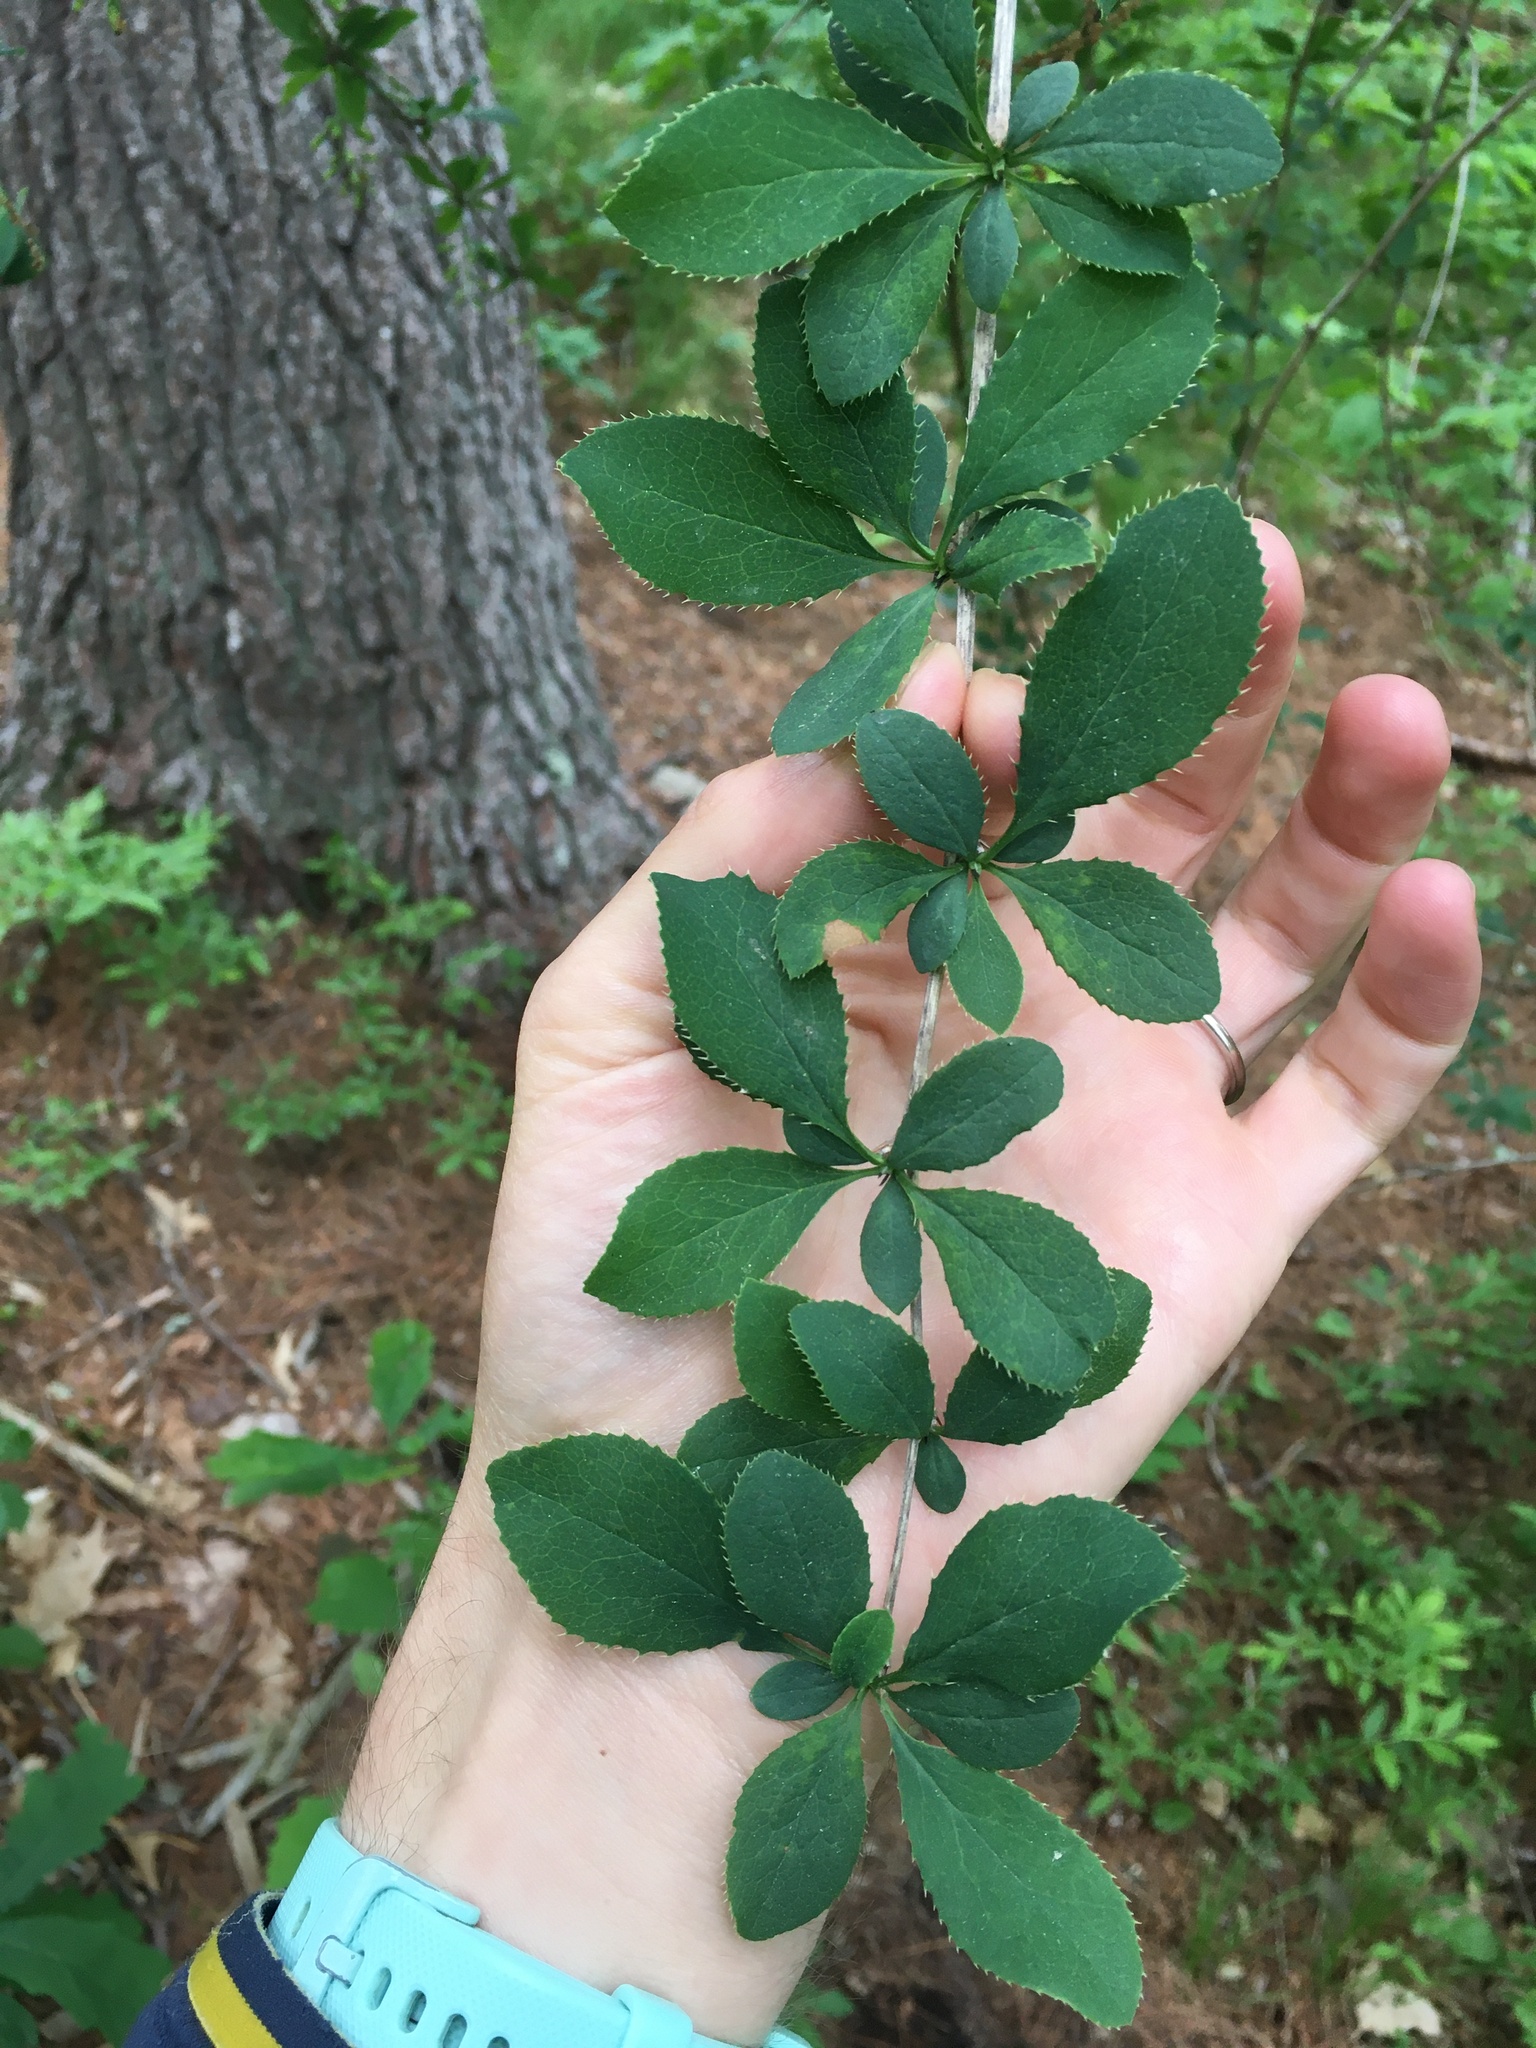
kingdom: Plantae
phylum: Tracheophyta
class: Magnoliopsida
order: Ranunculales
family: Berberidaceae
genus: Berberis
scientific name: Berberis vulgaris
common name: Barberry
